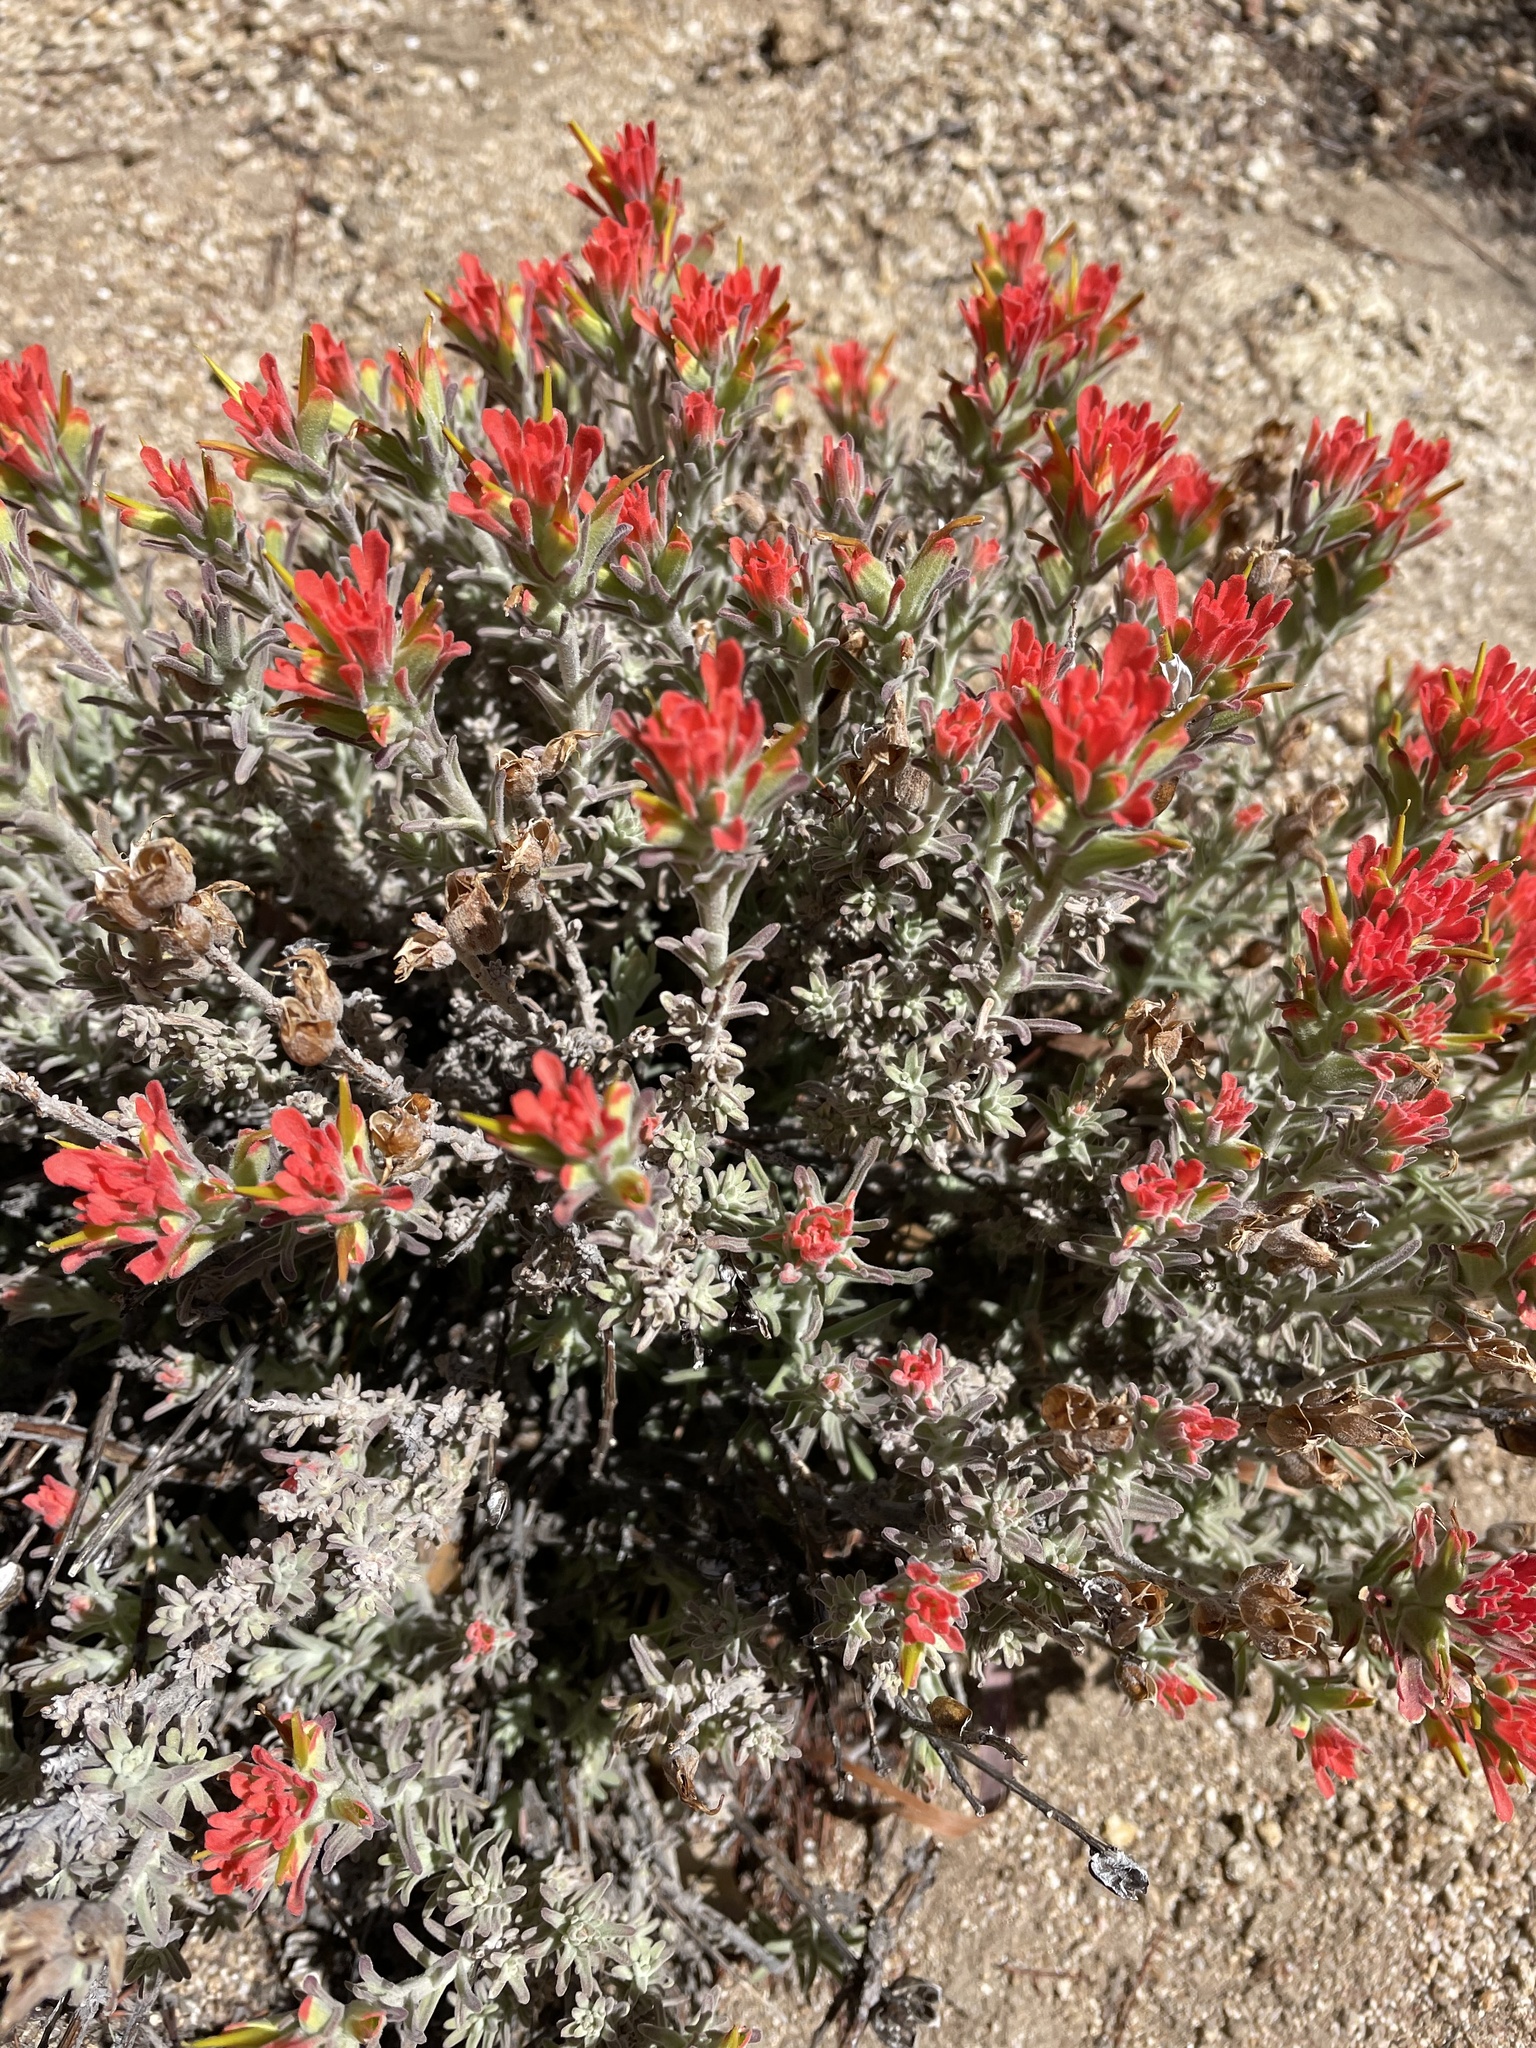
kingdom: Plantae
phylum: Tracheophyta
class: Magnoliopsida
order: Lamiales
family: Orobanchaceae
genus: Castilleja
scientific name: Castilleja foliolosa
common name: Woolly indian paintbrush
